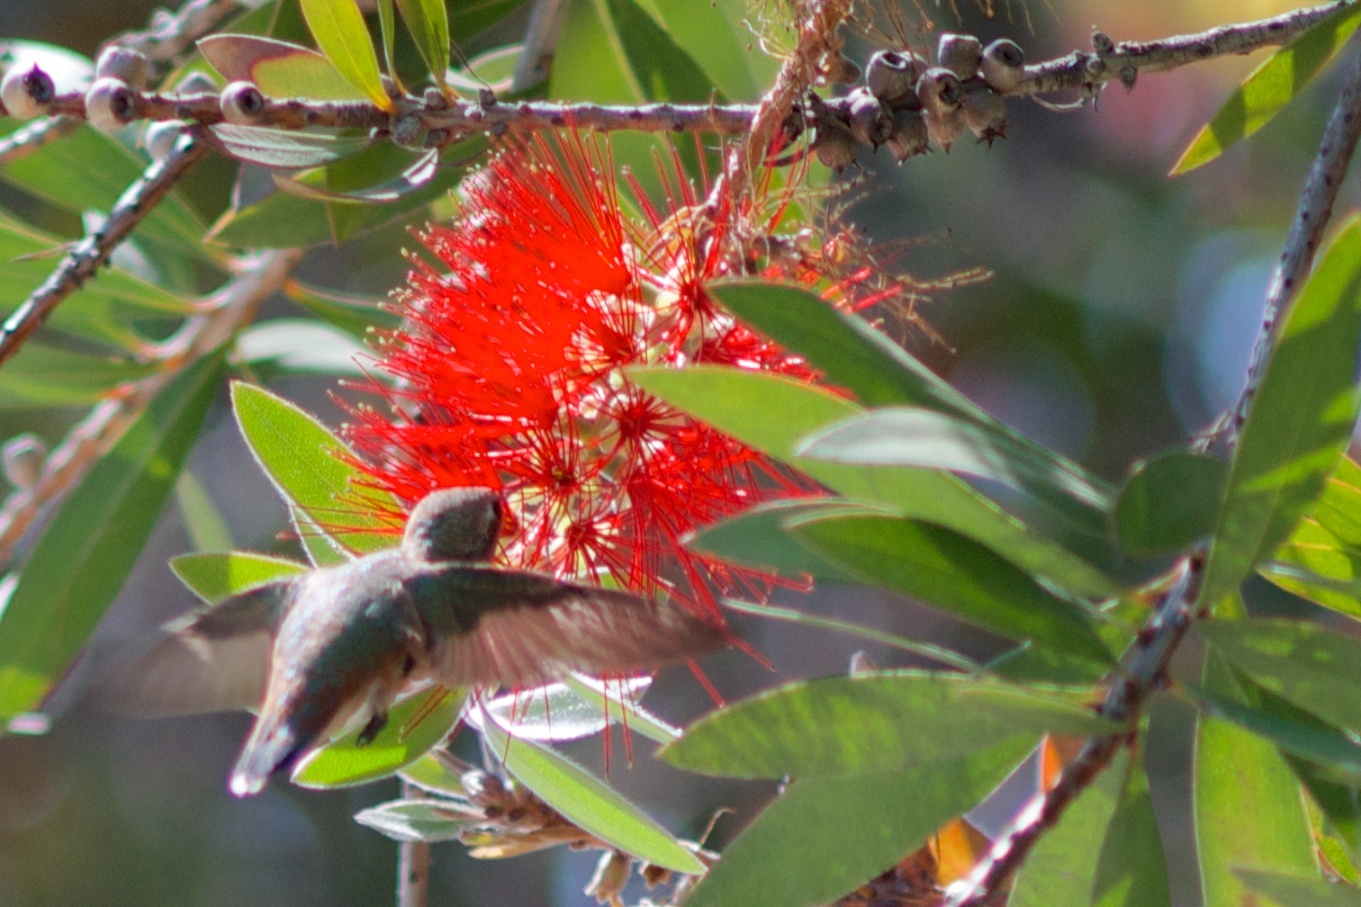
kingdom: Animalia
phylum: Chordata
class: Aves
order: Apodiformes
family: Trochilidae
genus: Selasphorus
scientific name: Selasphorus
